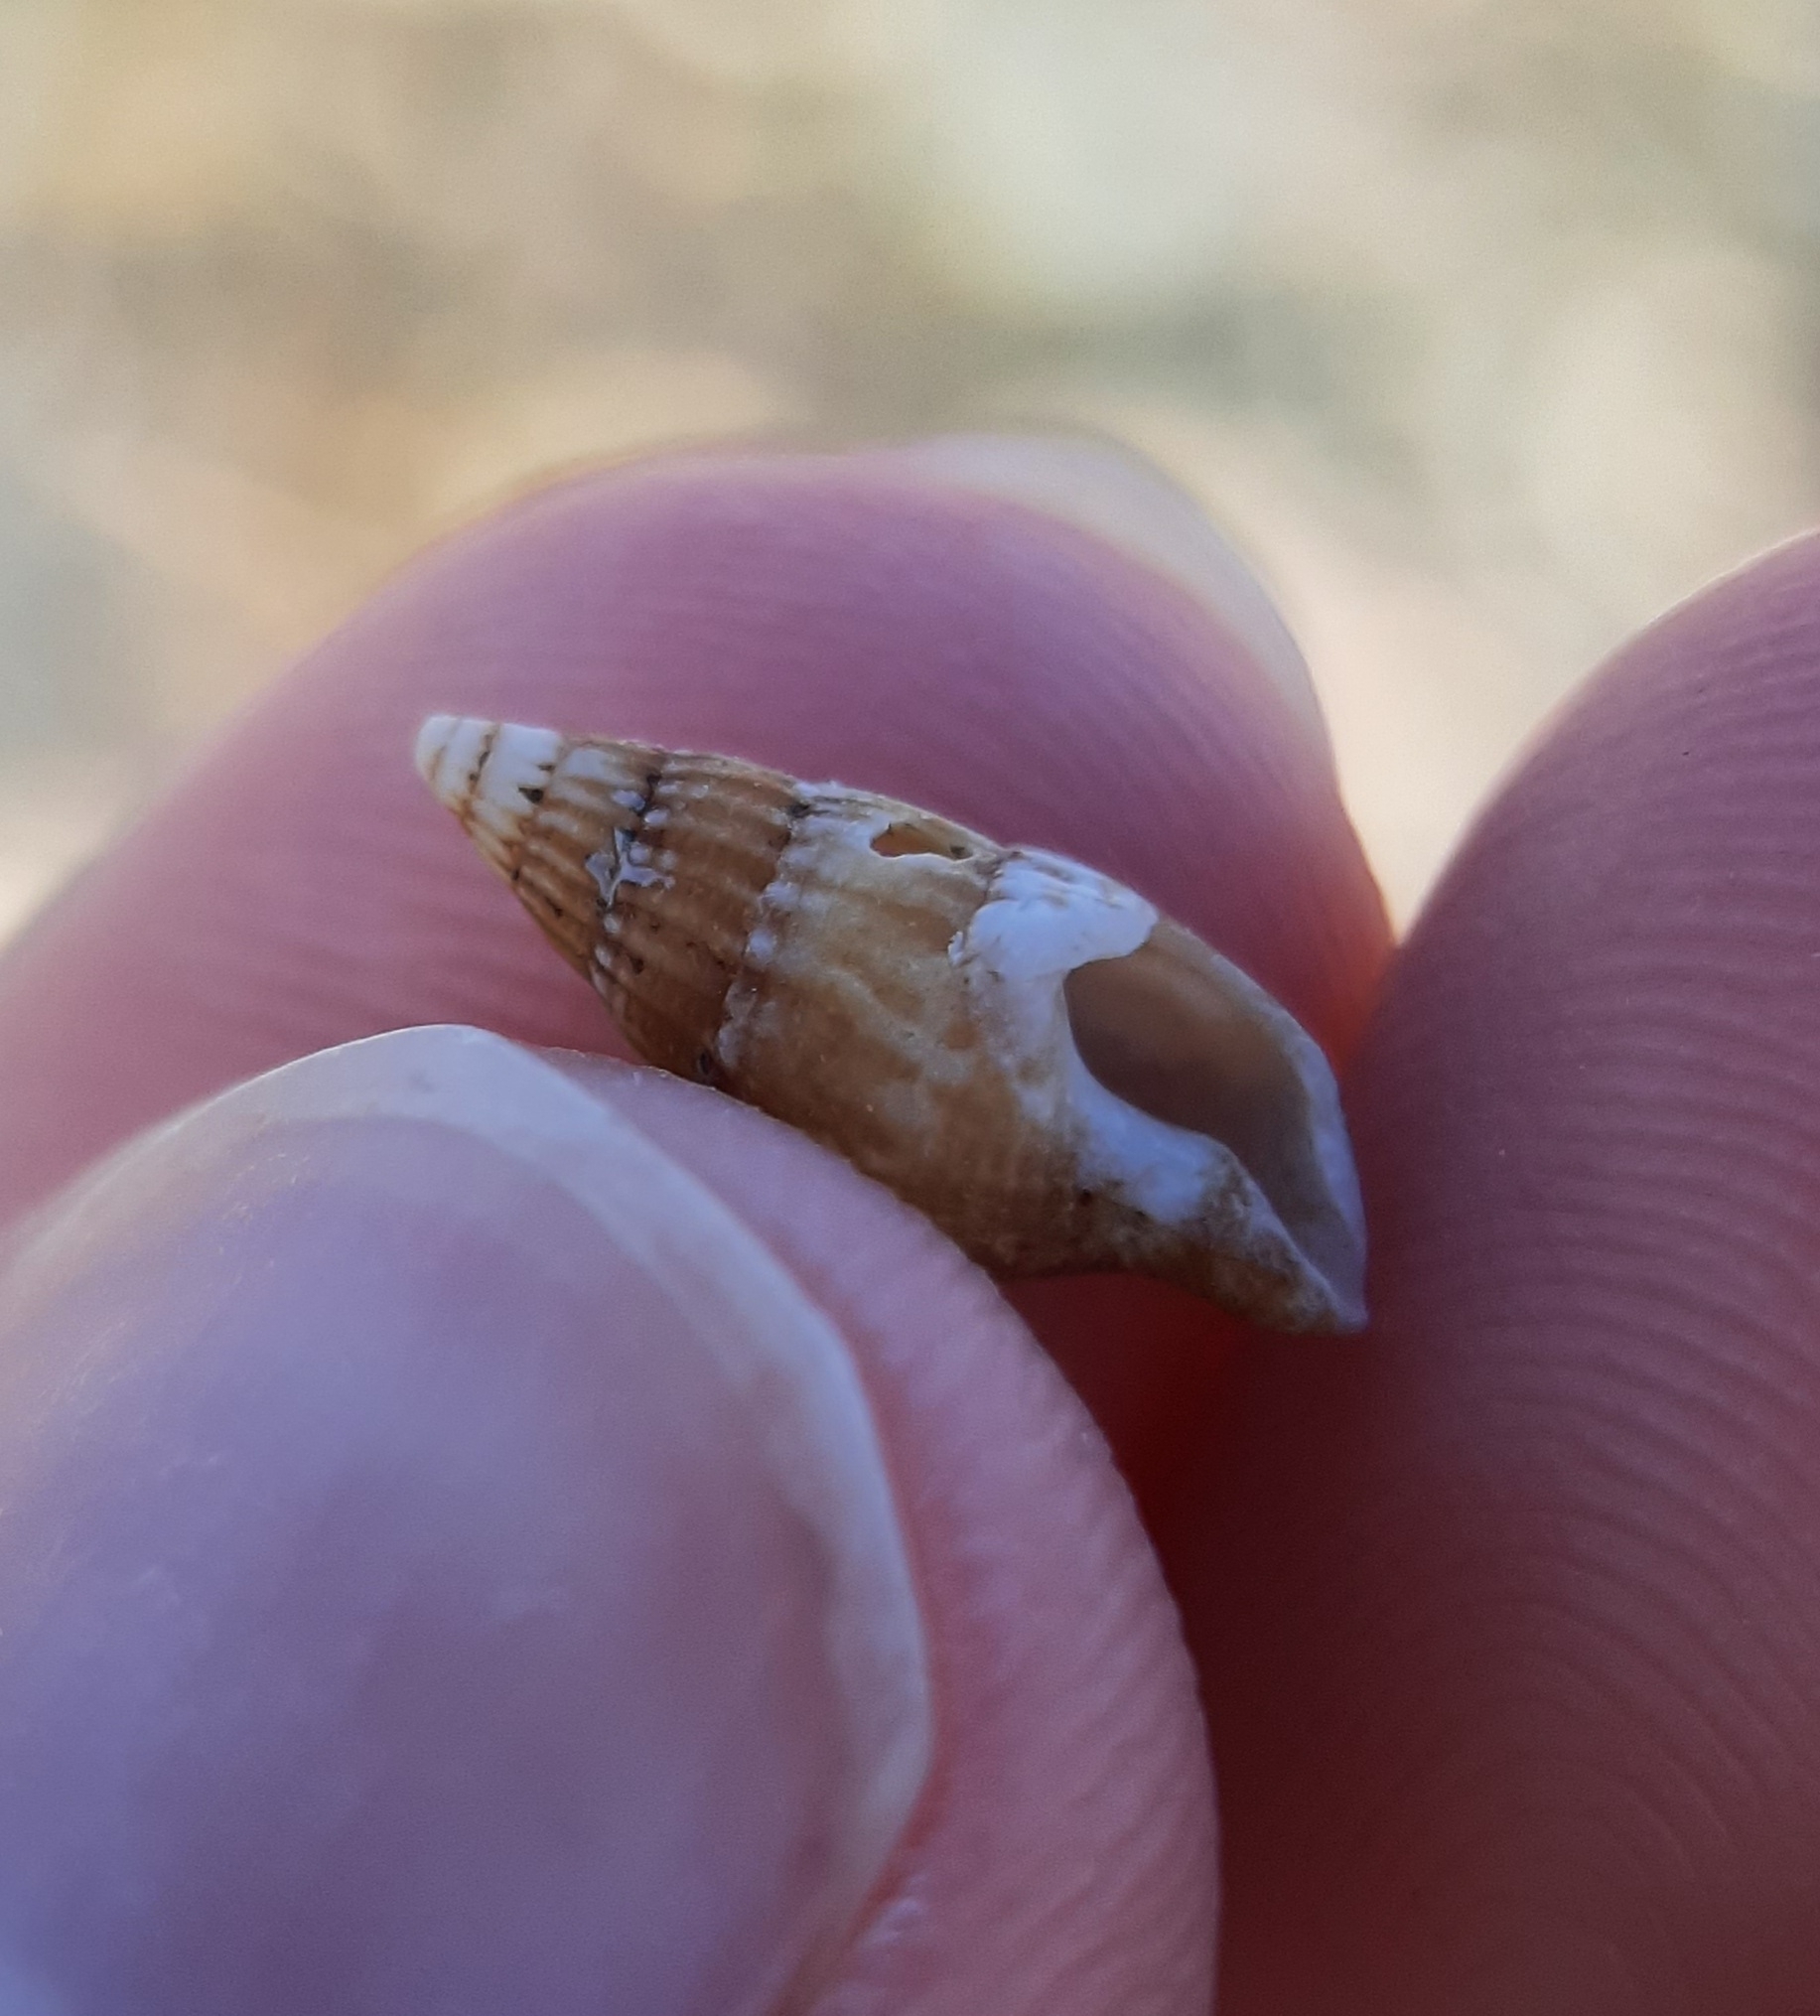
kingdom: Animalia
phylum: Mollusca
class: Gastropoda
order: Neogastropoda
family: Columbellidae
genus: Costoanachis
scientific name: Costoanachis translirata
